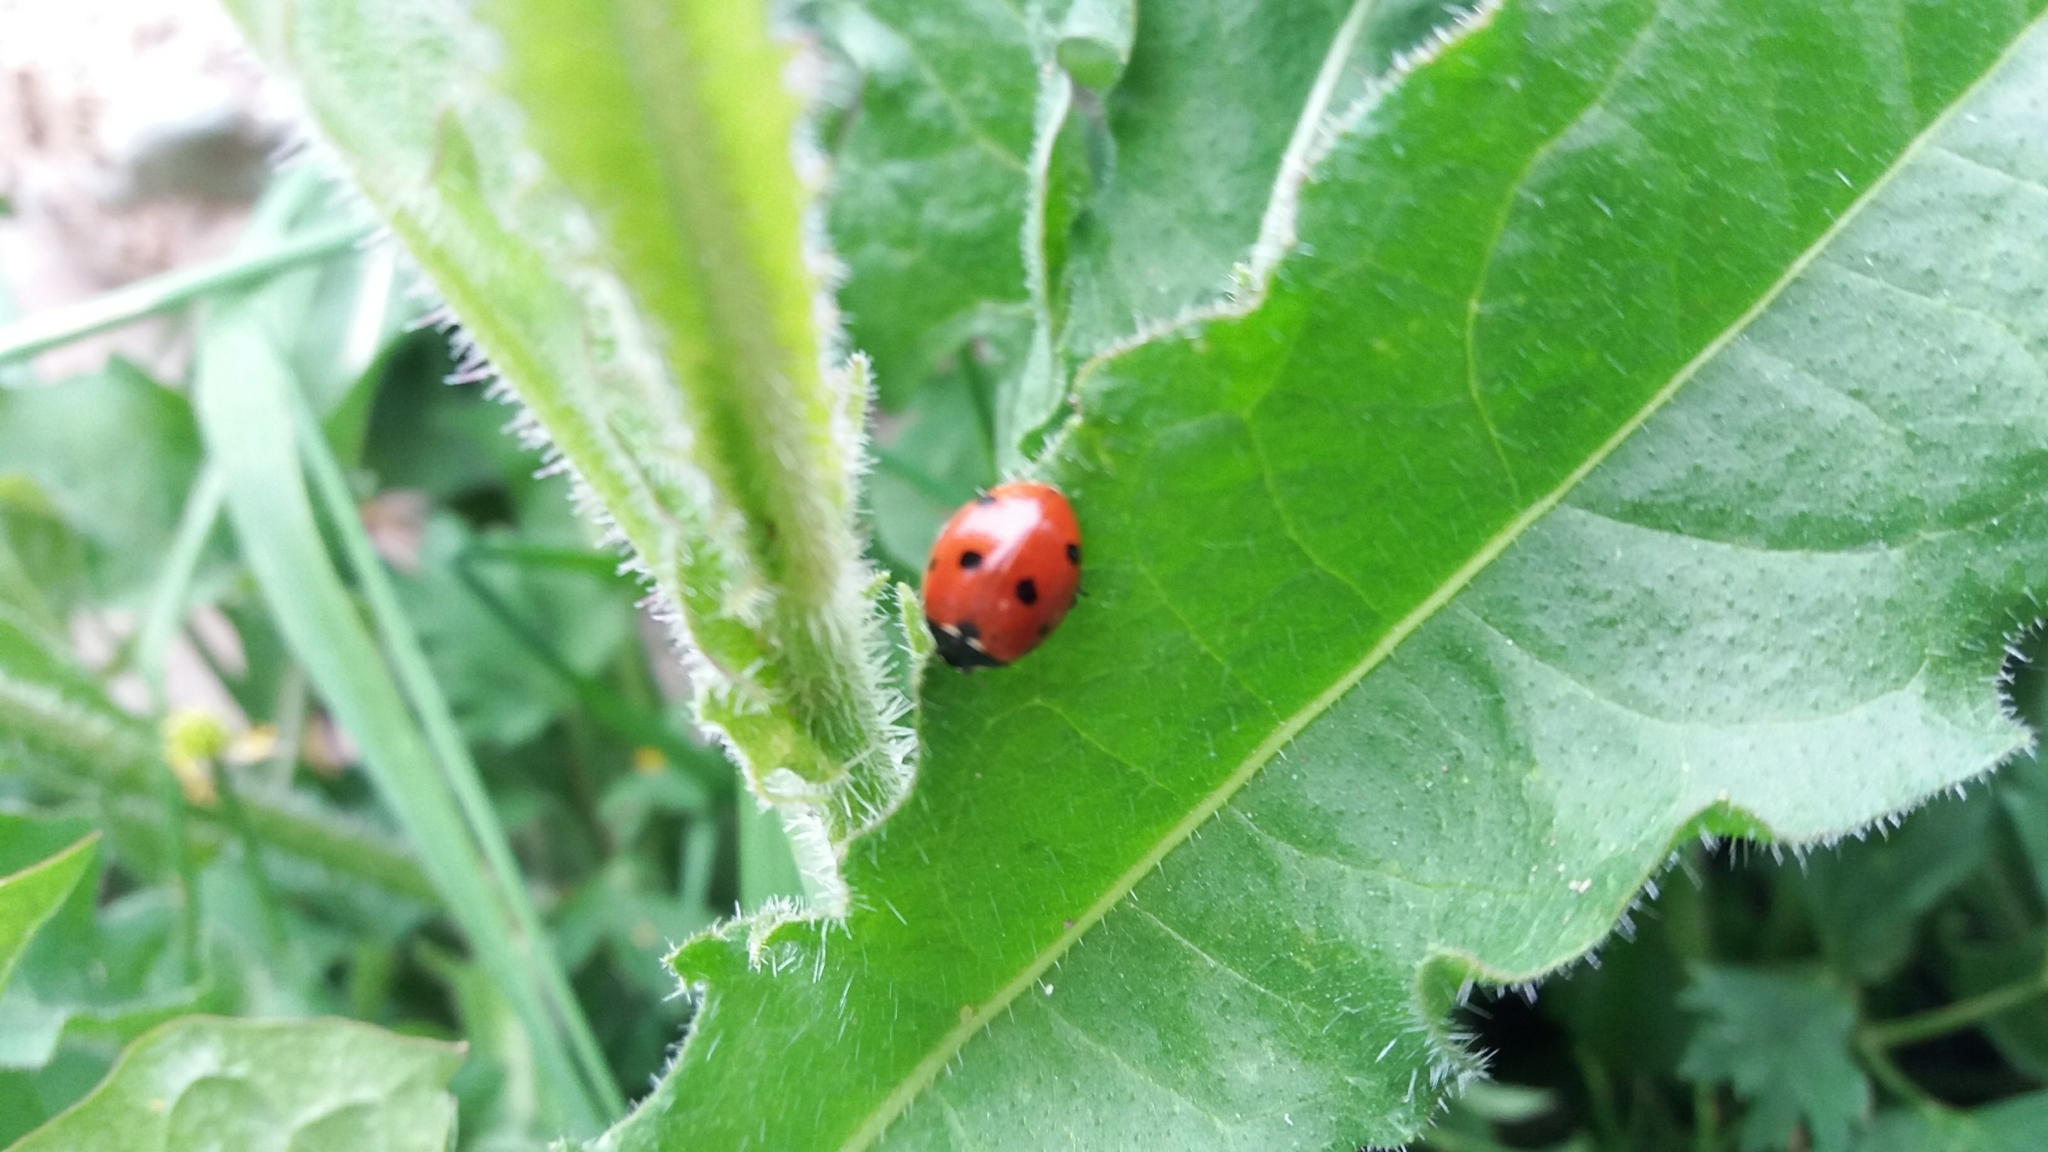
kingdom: Animalia
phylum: Arthropoda
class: Insecta
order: Coleoptera
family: Coccinellidae
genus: Coccinella
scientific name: Coccinella septempunctata
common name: Sevenspotted lady beetle
